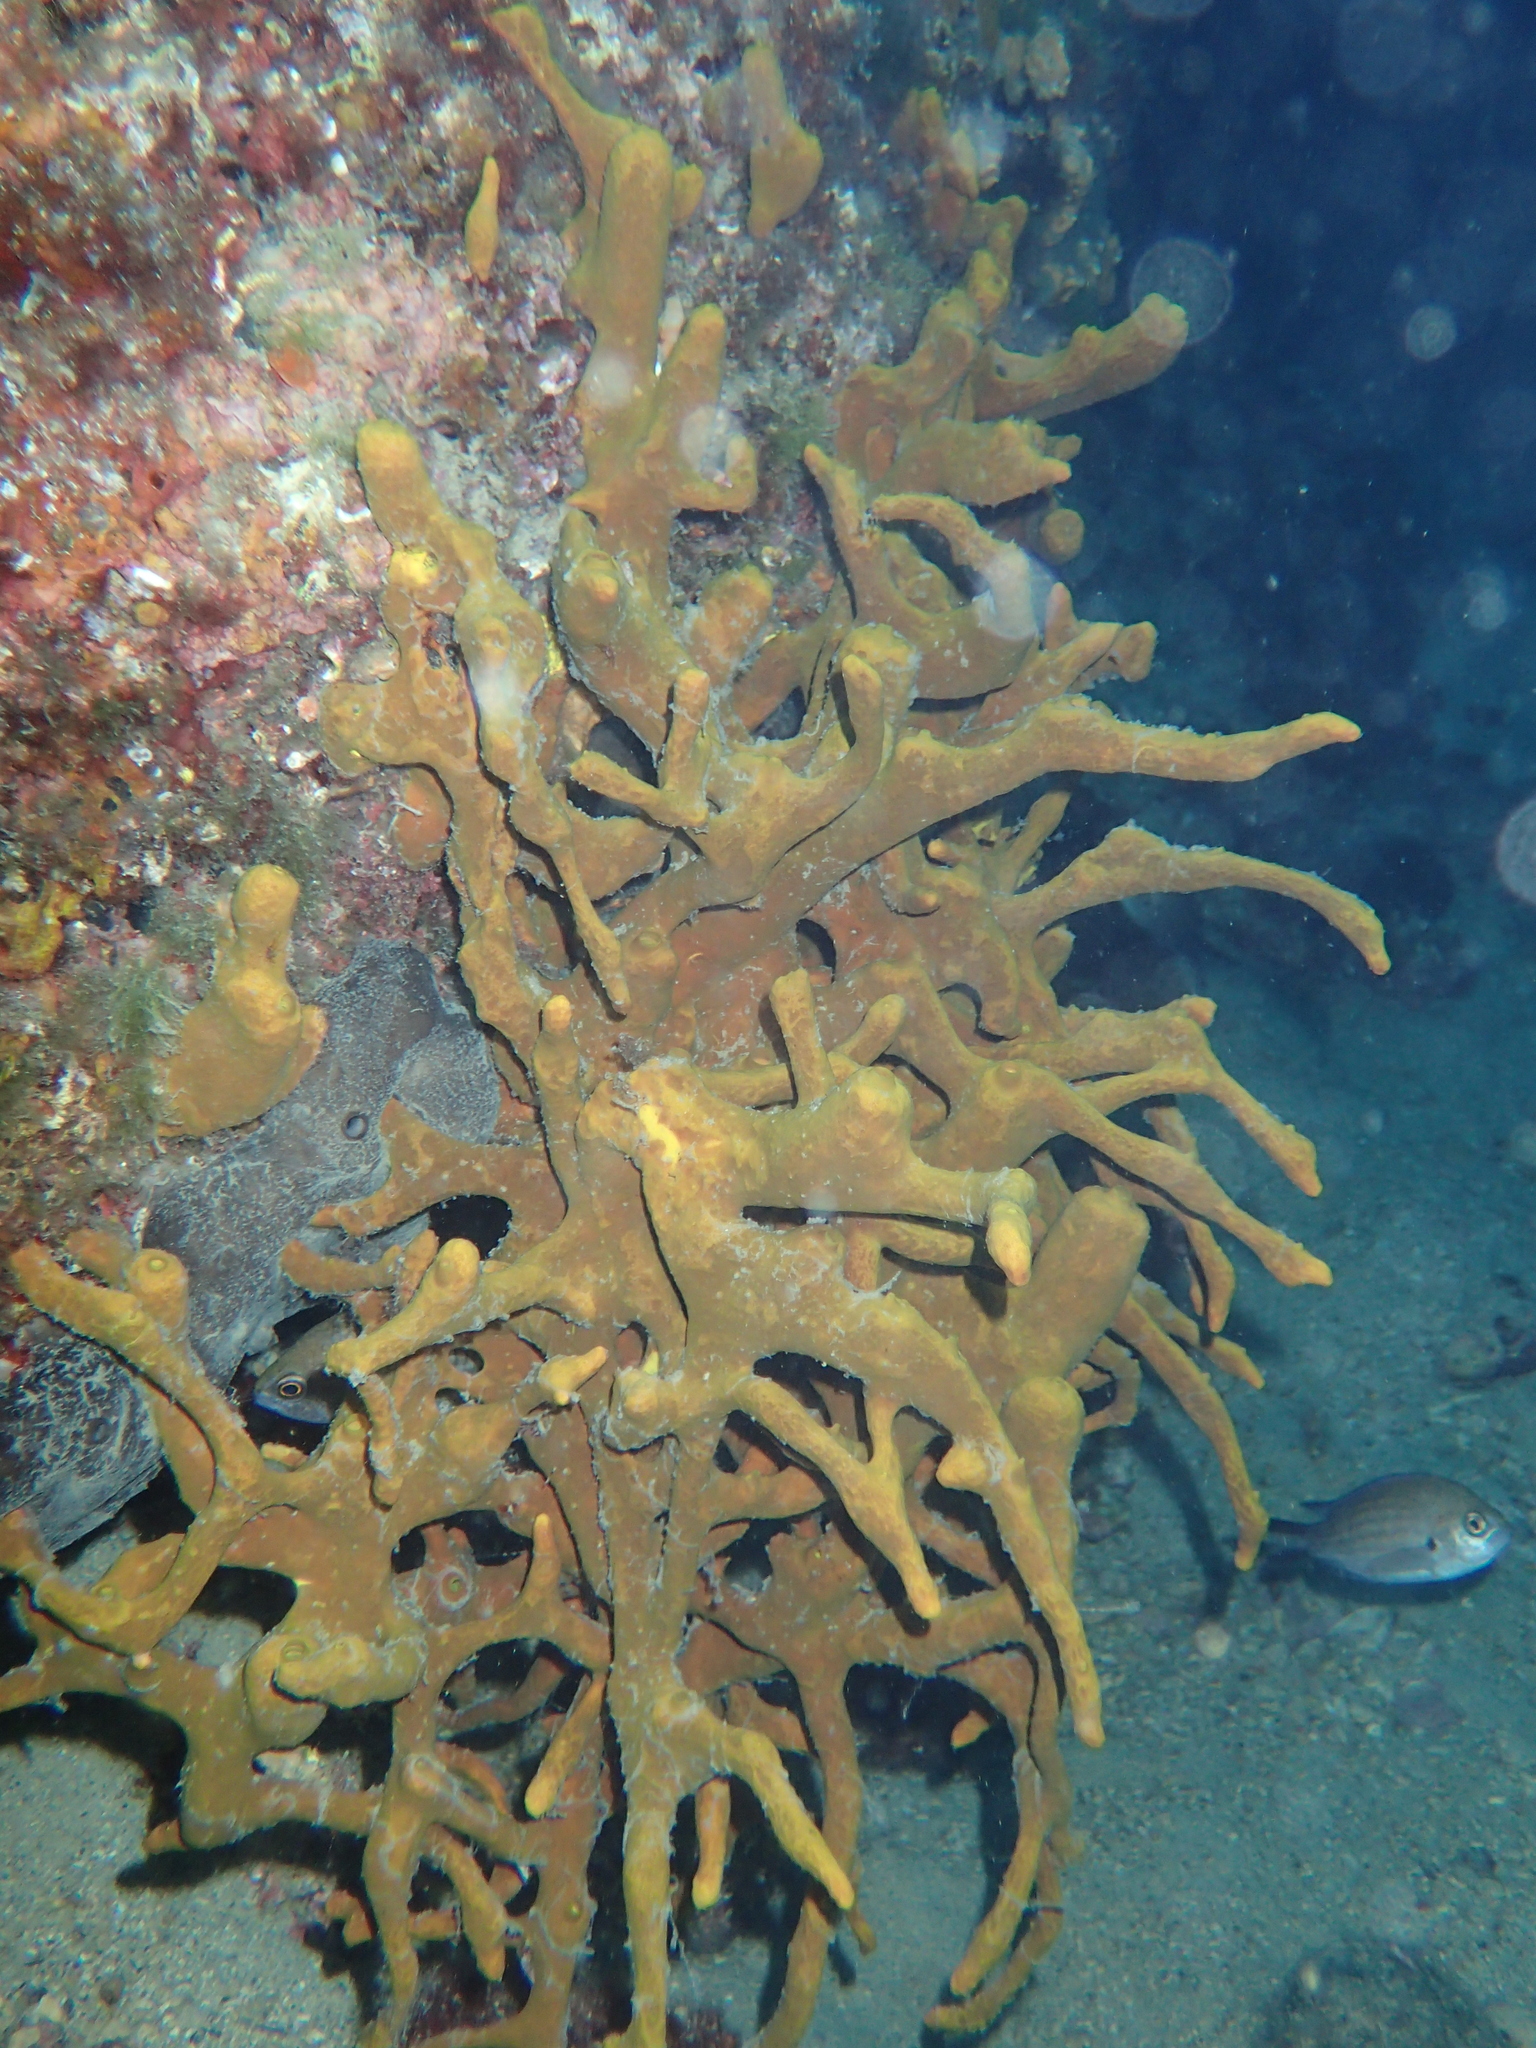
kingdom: Animalia
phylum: Porifera
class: Demospongiae
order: Verongiida
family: Aplysinidae
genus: Aplysina
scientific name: Aplysina aerophoba
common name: Aureate sponge
